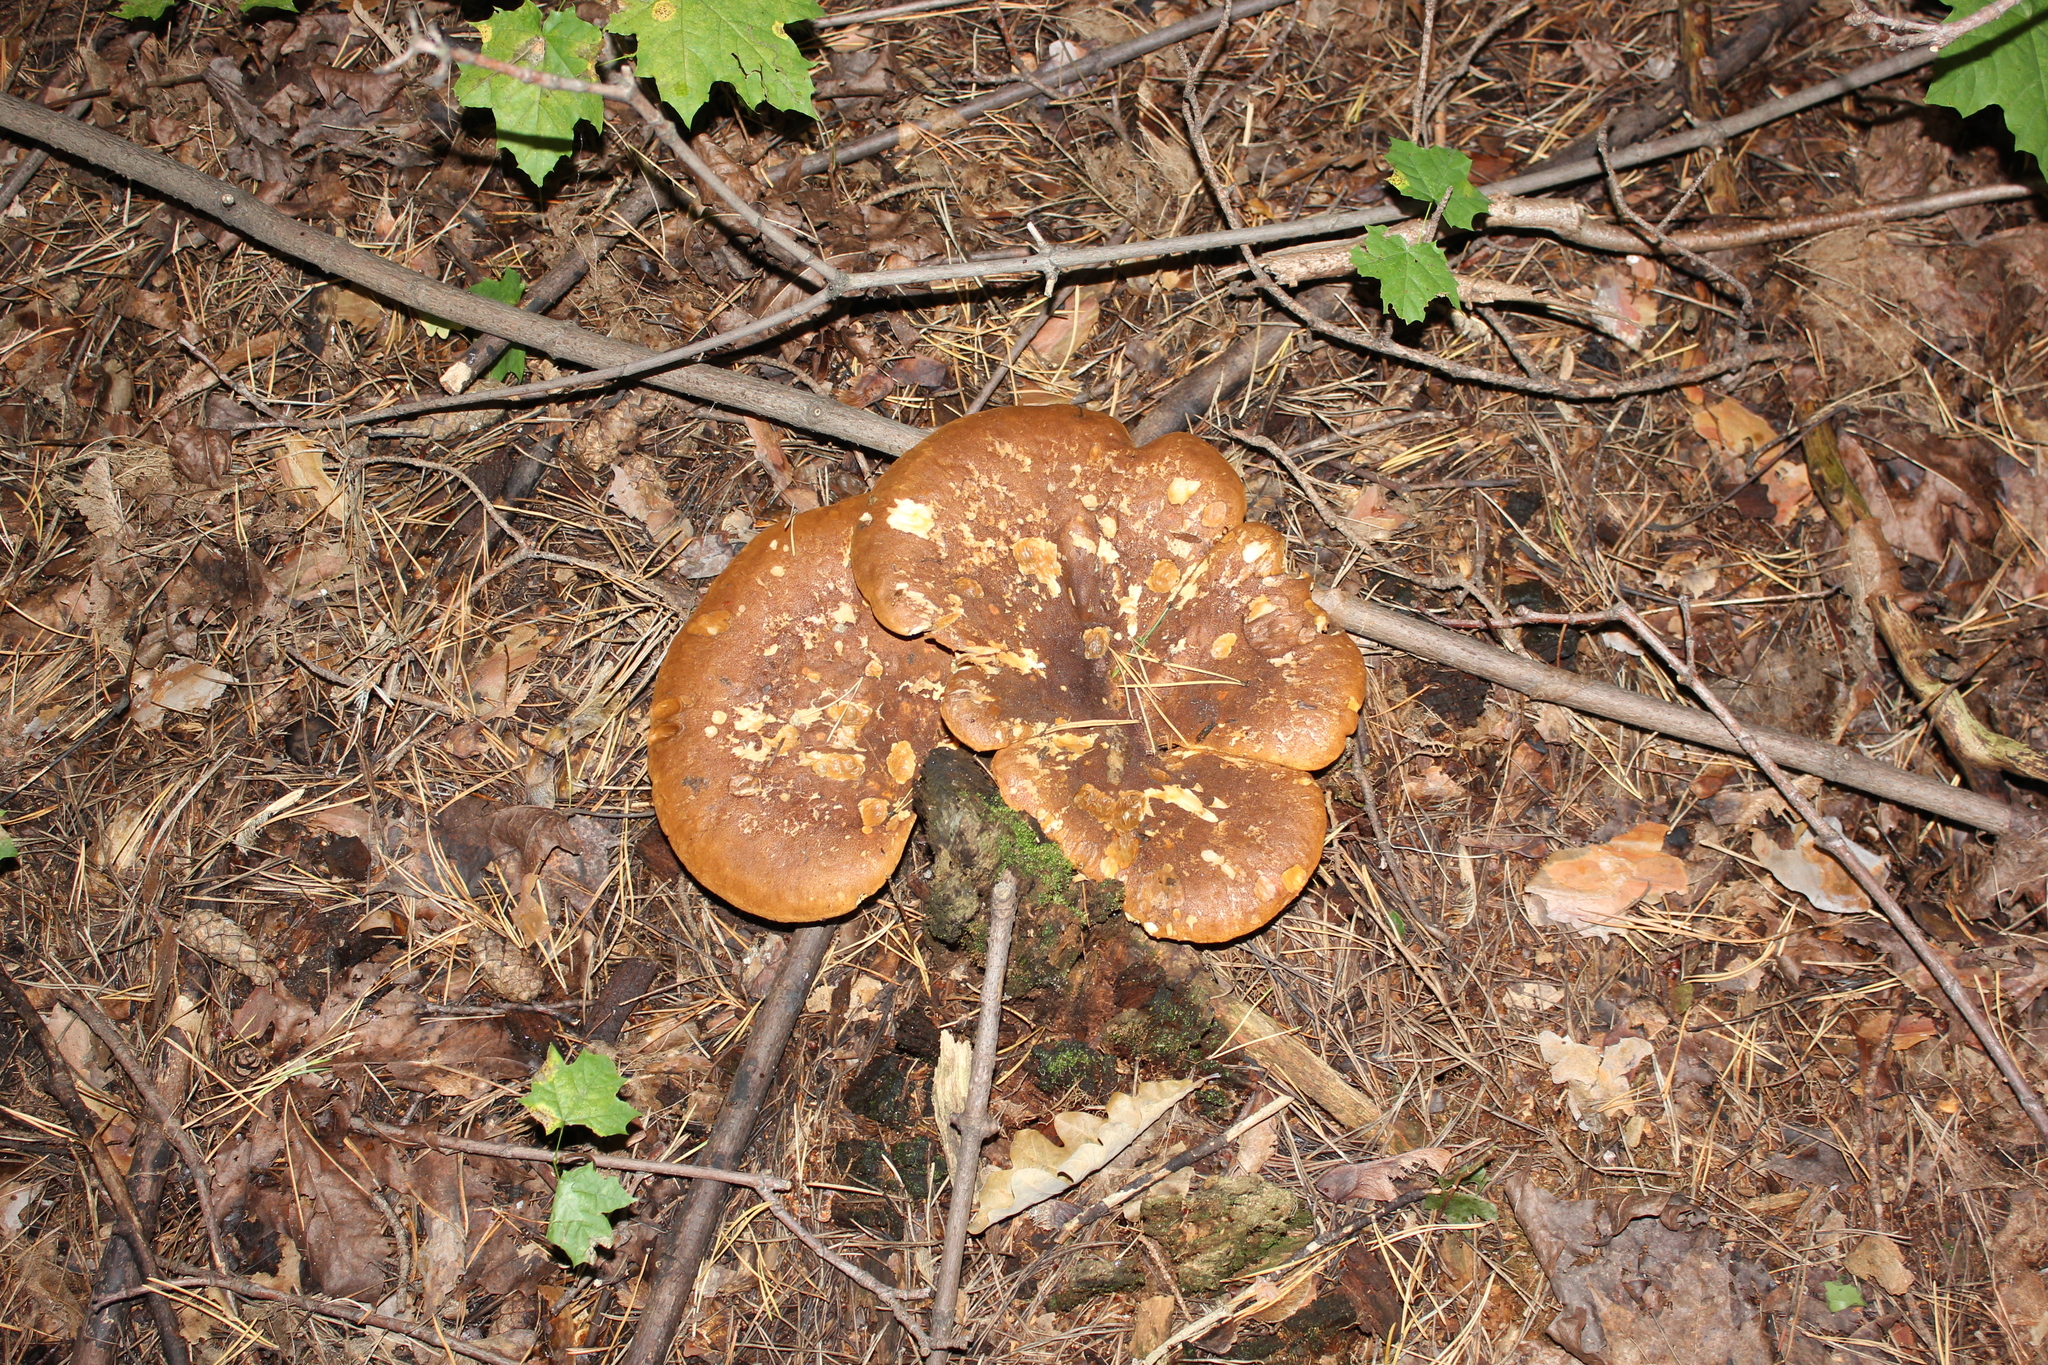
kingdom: Fungi
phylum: Basidiomycota
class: Agaricomycetes
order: Boletales
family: Tapinellaceae
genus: Tapinella
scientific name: Tapinella atrotomentosa
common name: Velvet rollrim
